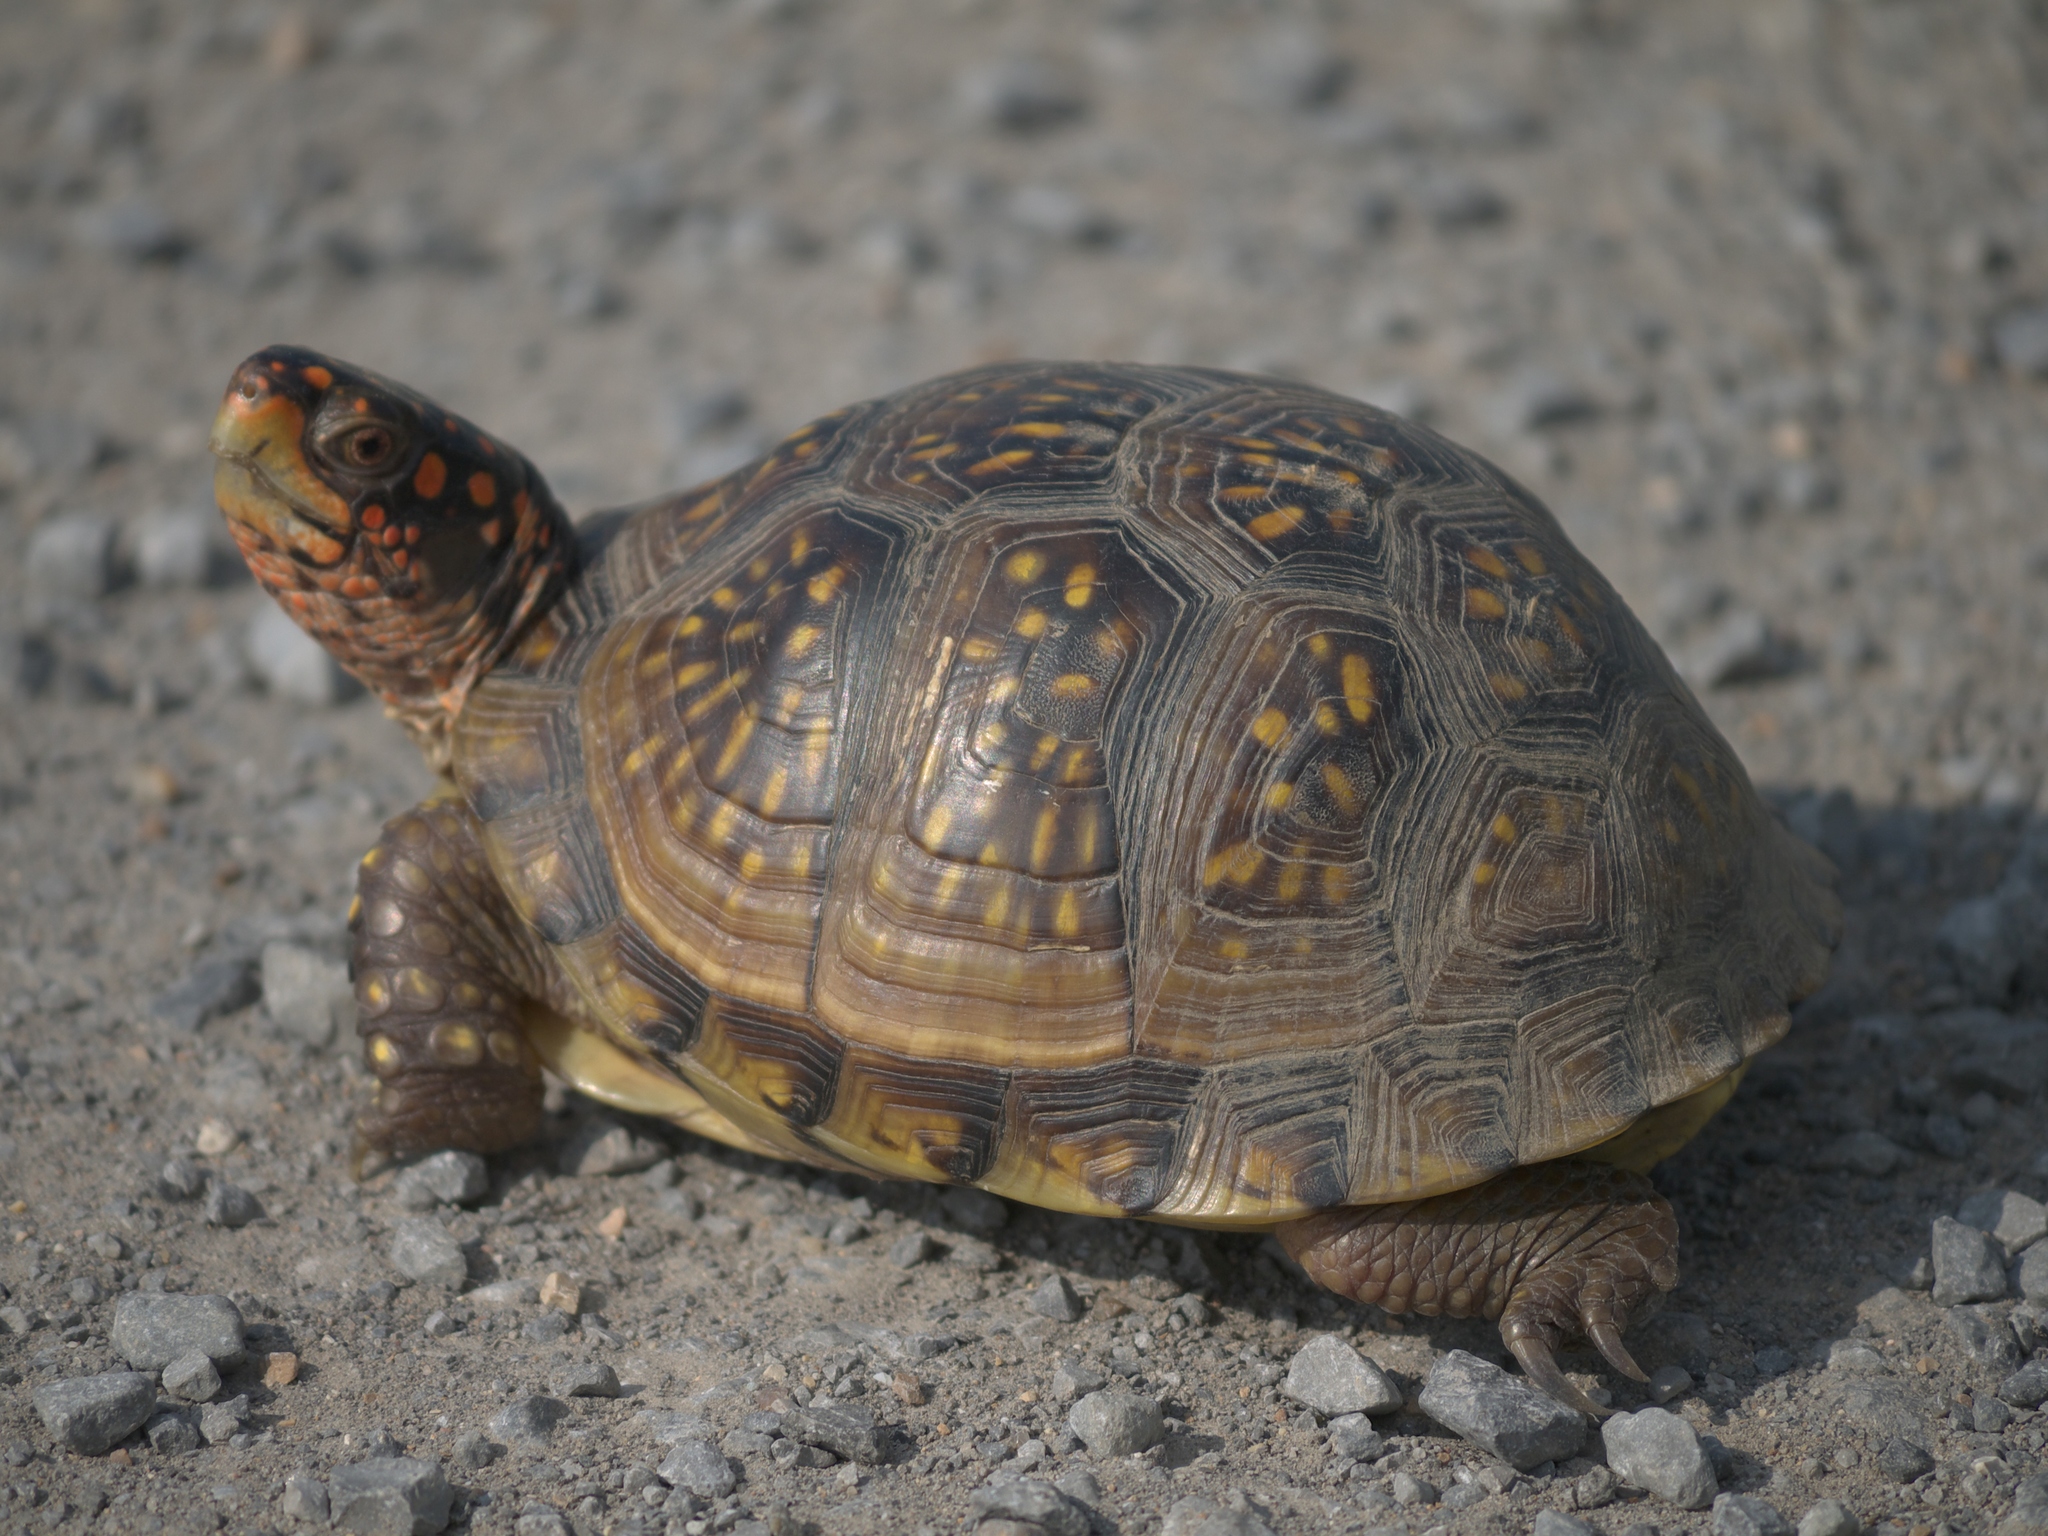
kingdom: Animalia
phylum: Chordata
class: Testudines
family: Emydidae
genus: Terrapene
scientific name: Terrapene carolina
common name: Common box turtle
